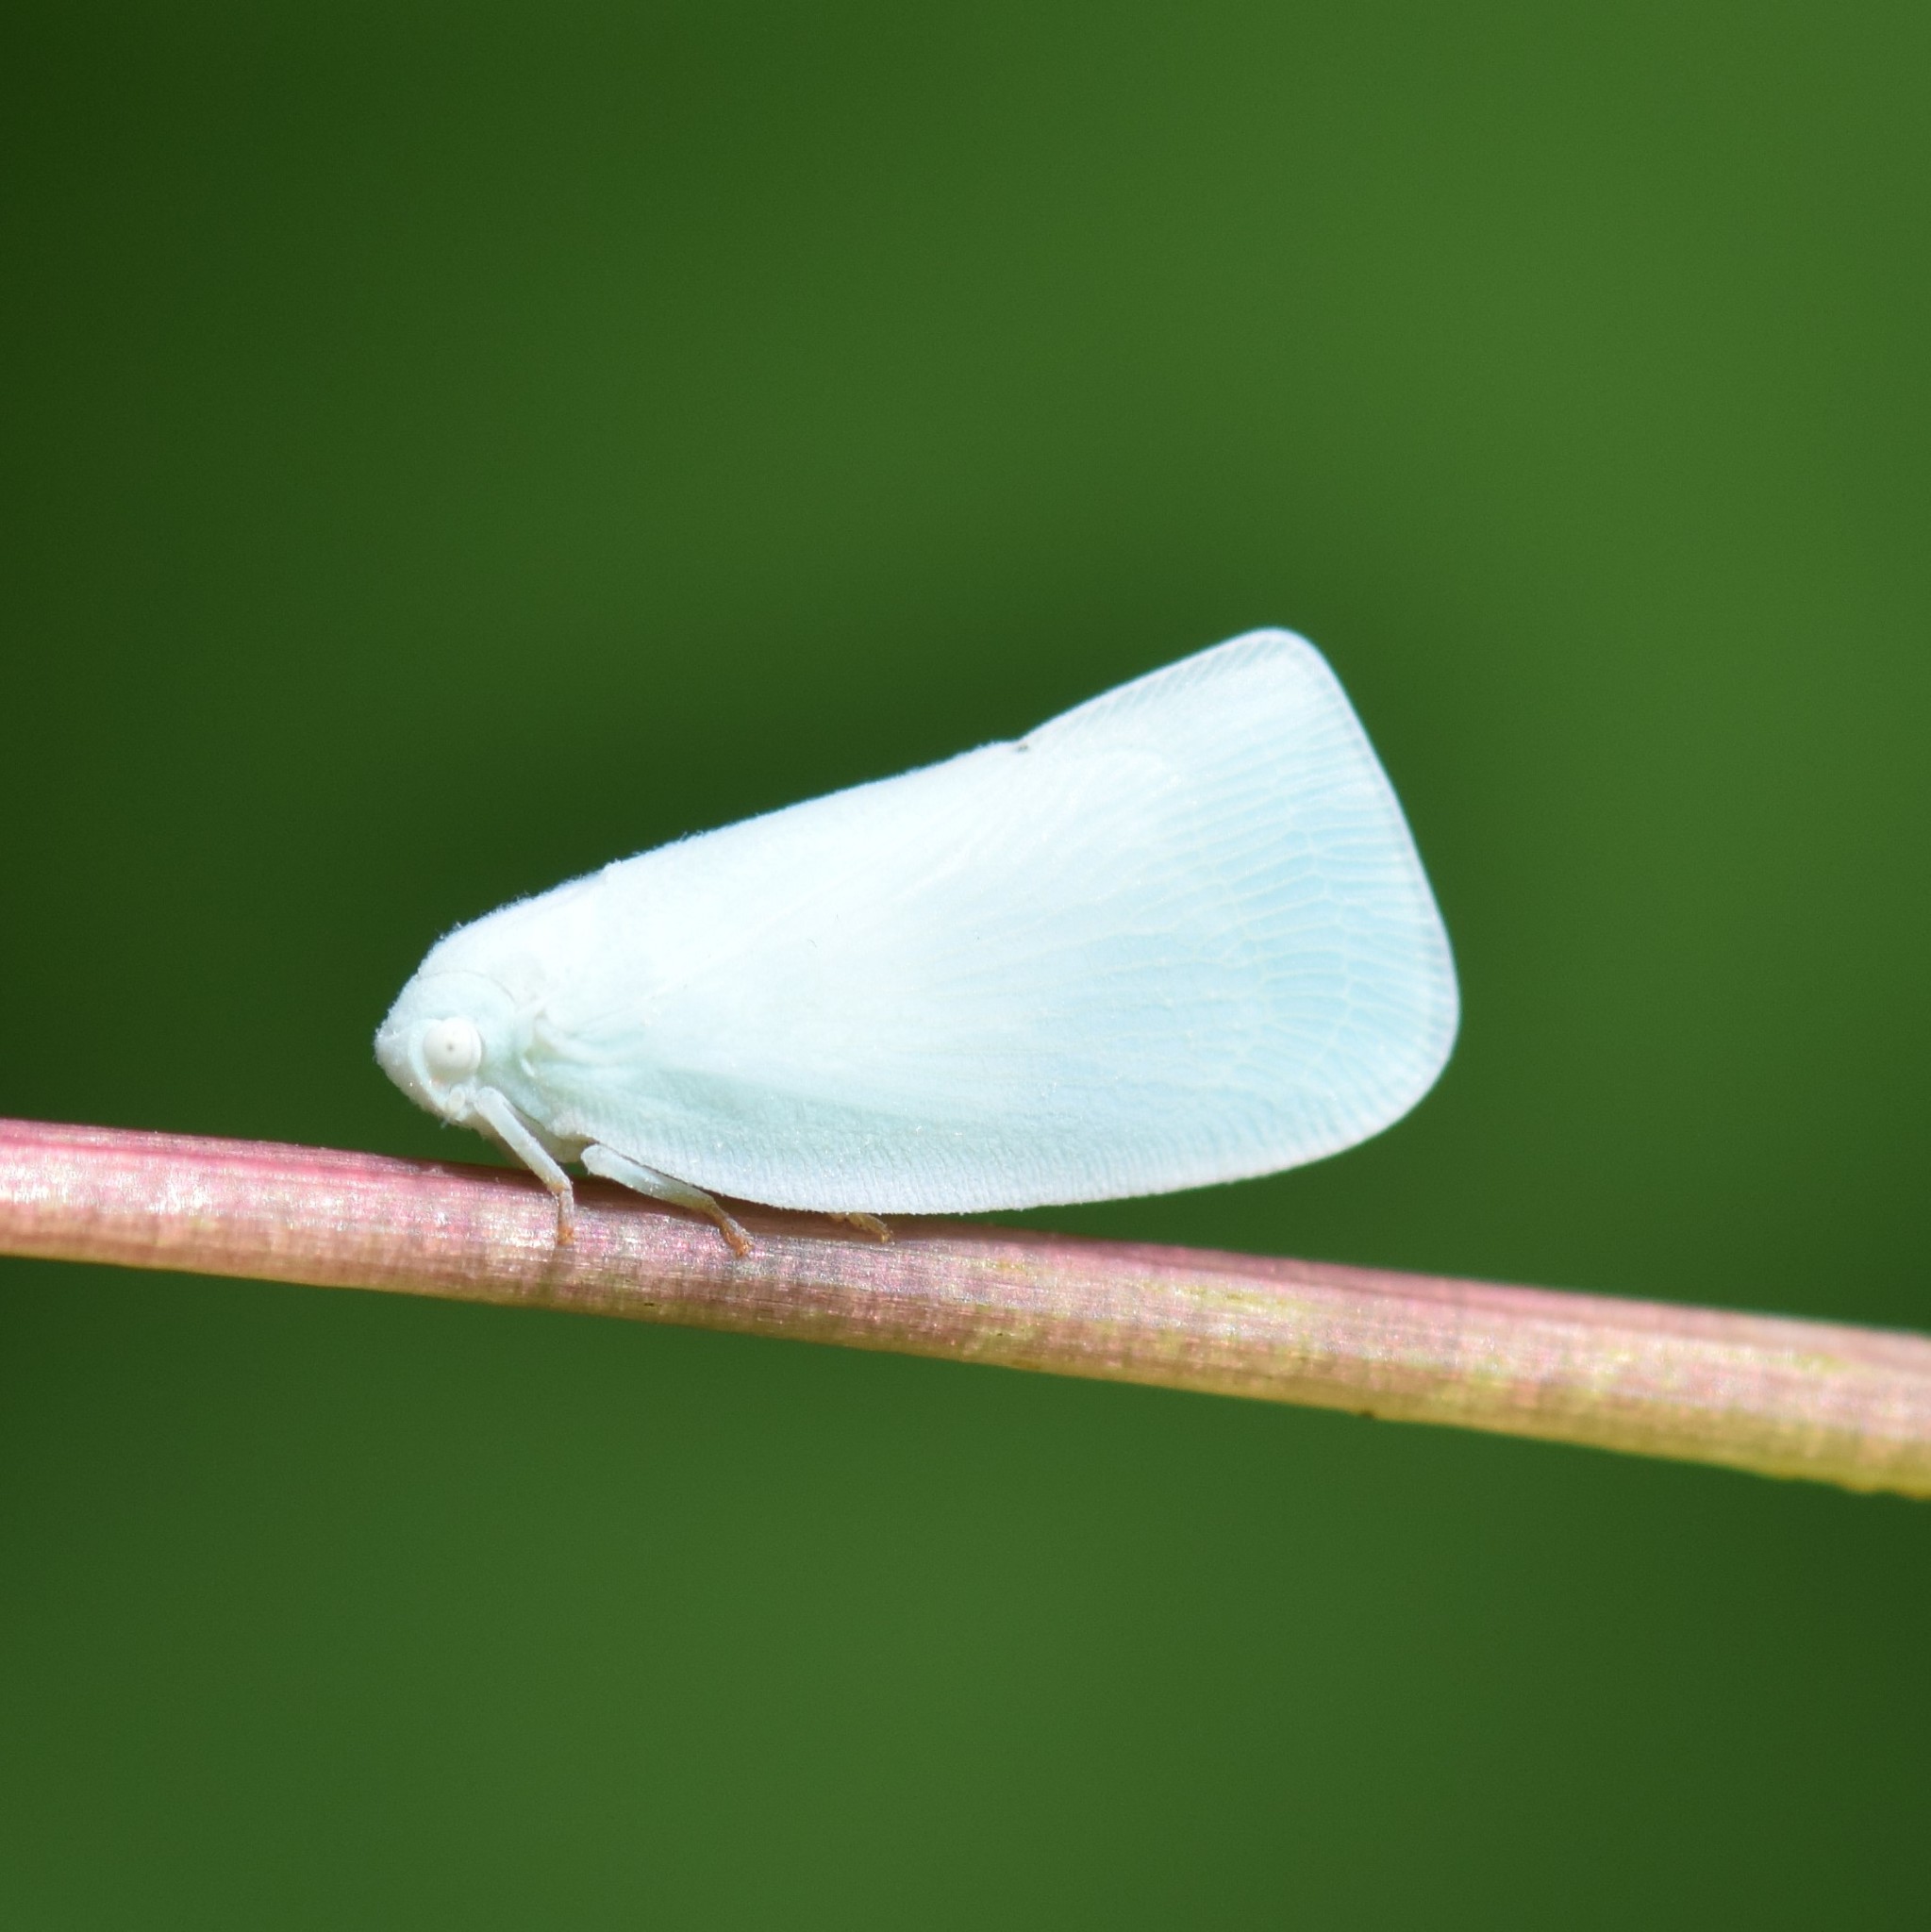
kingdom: Animalia
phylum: Arthropoda
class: Insecta
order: Hemiptera
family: Flatidae
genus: Flatormenis
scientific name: Flatormenis proxima
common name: Northern flatid planthopper
